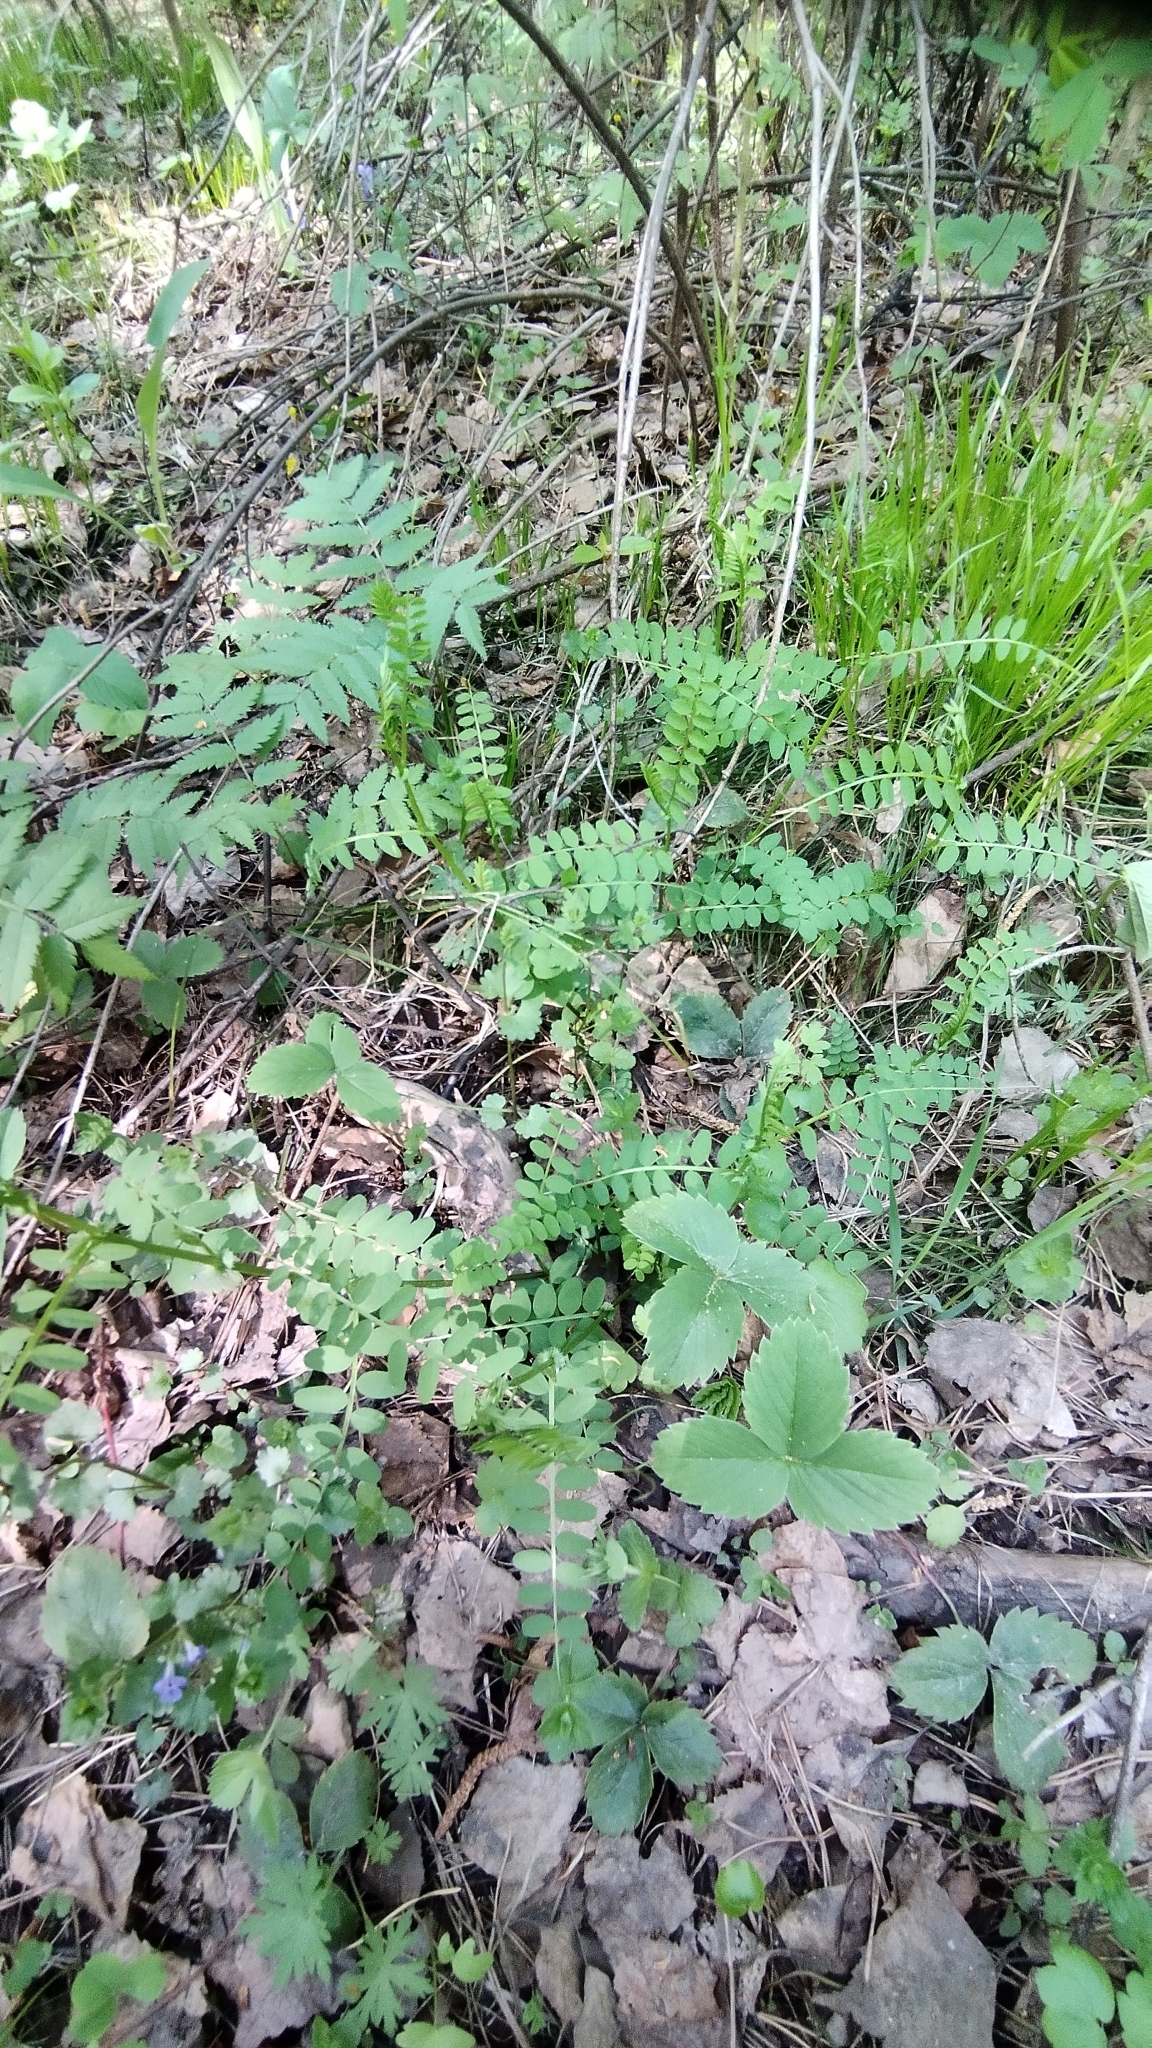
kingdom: Plantae
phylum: Tracheophyta
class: Magnoliopsida
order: Fabales
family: Fabaceae
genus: Vicia
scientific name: Vicia
